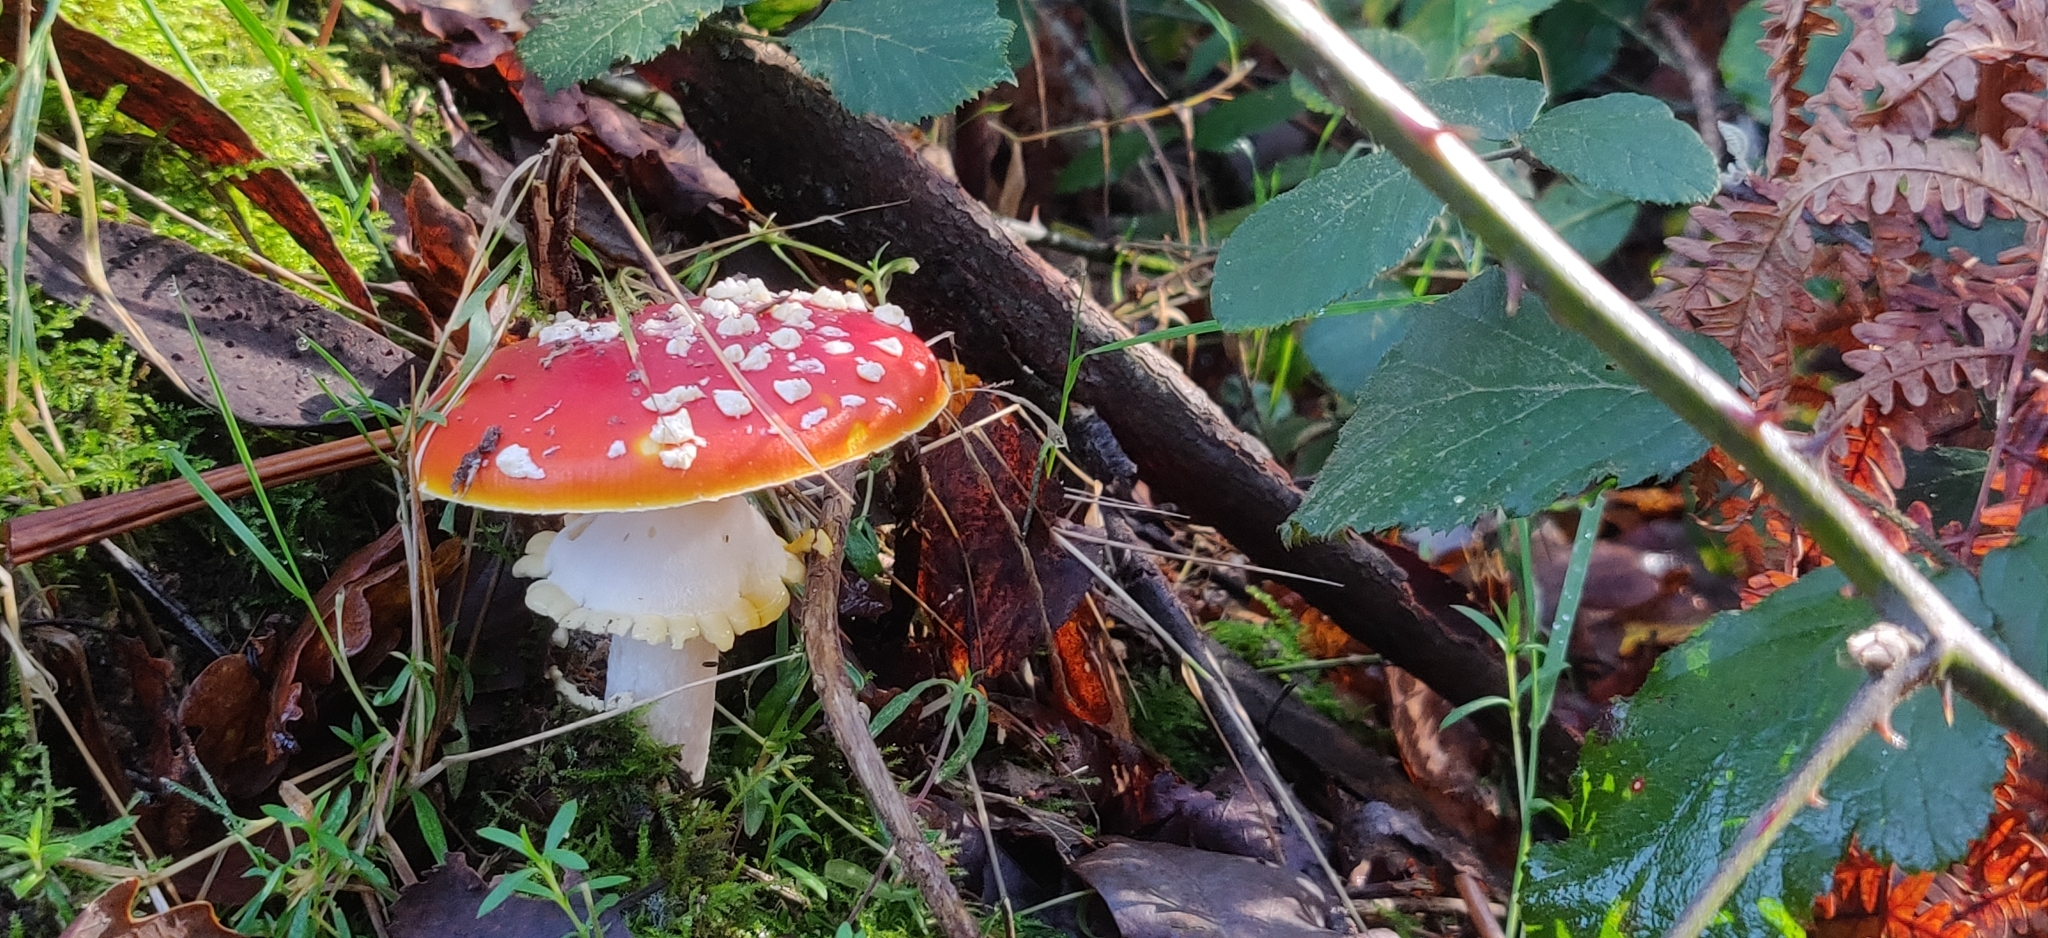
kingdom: Fungi
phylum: Basidiomycota
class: Agaricomycetes
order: Agaricales
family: Amanitaceae
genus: Amanita
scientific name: Amanita muscaria
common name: Fly agaric
